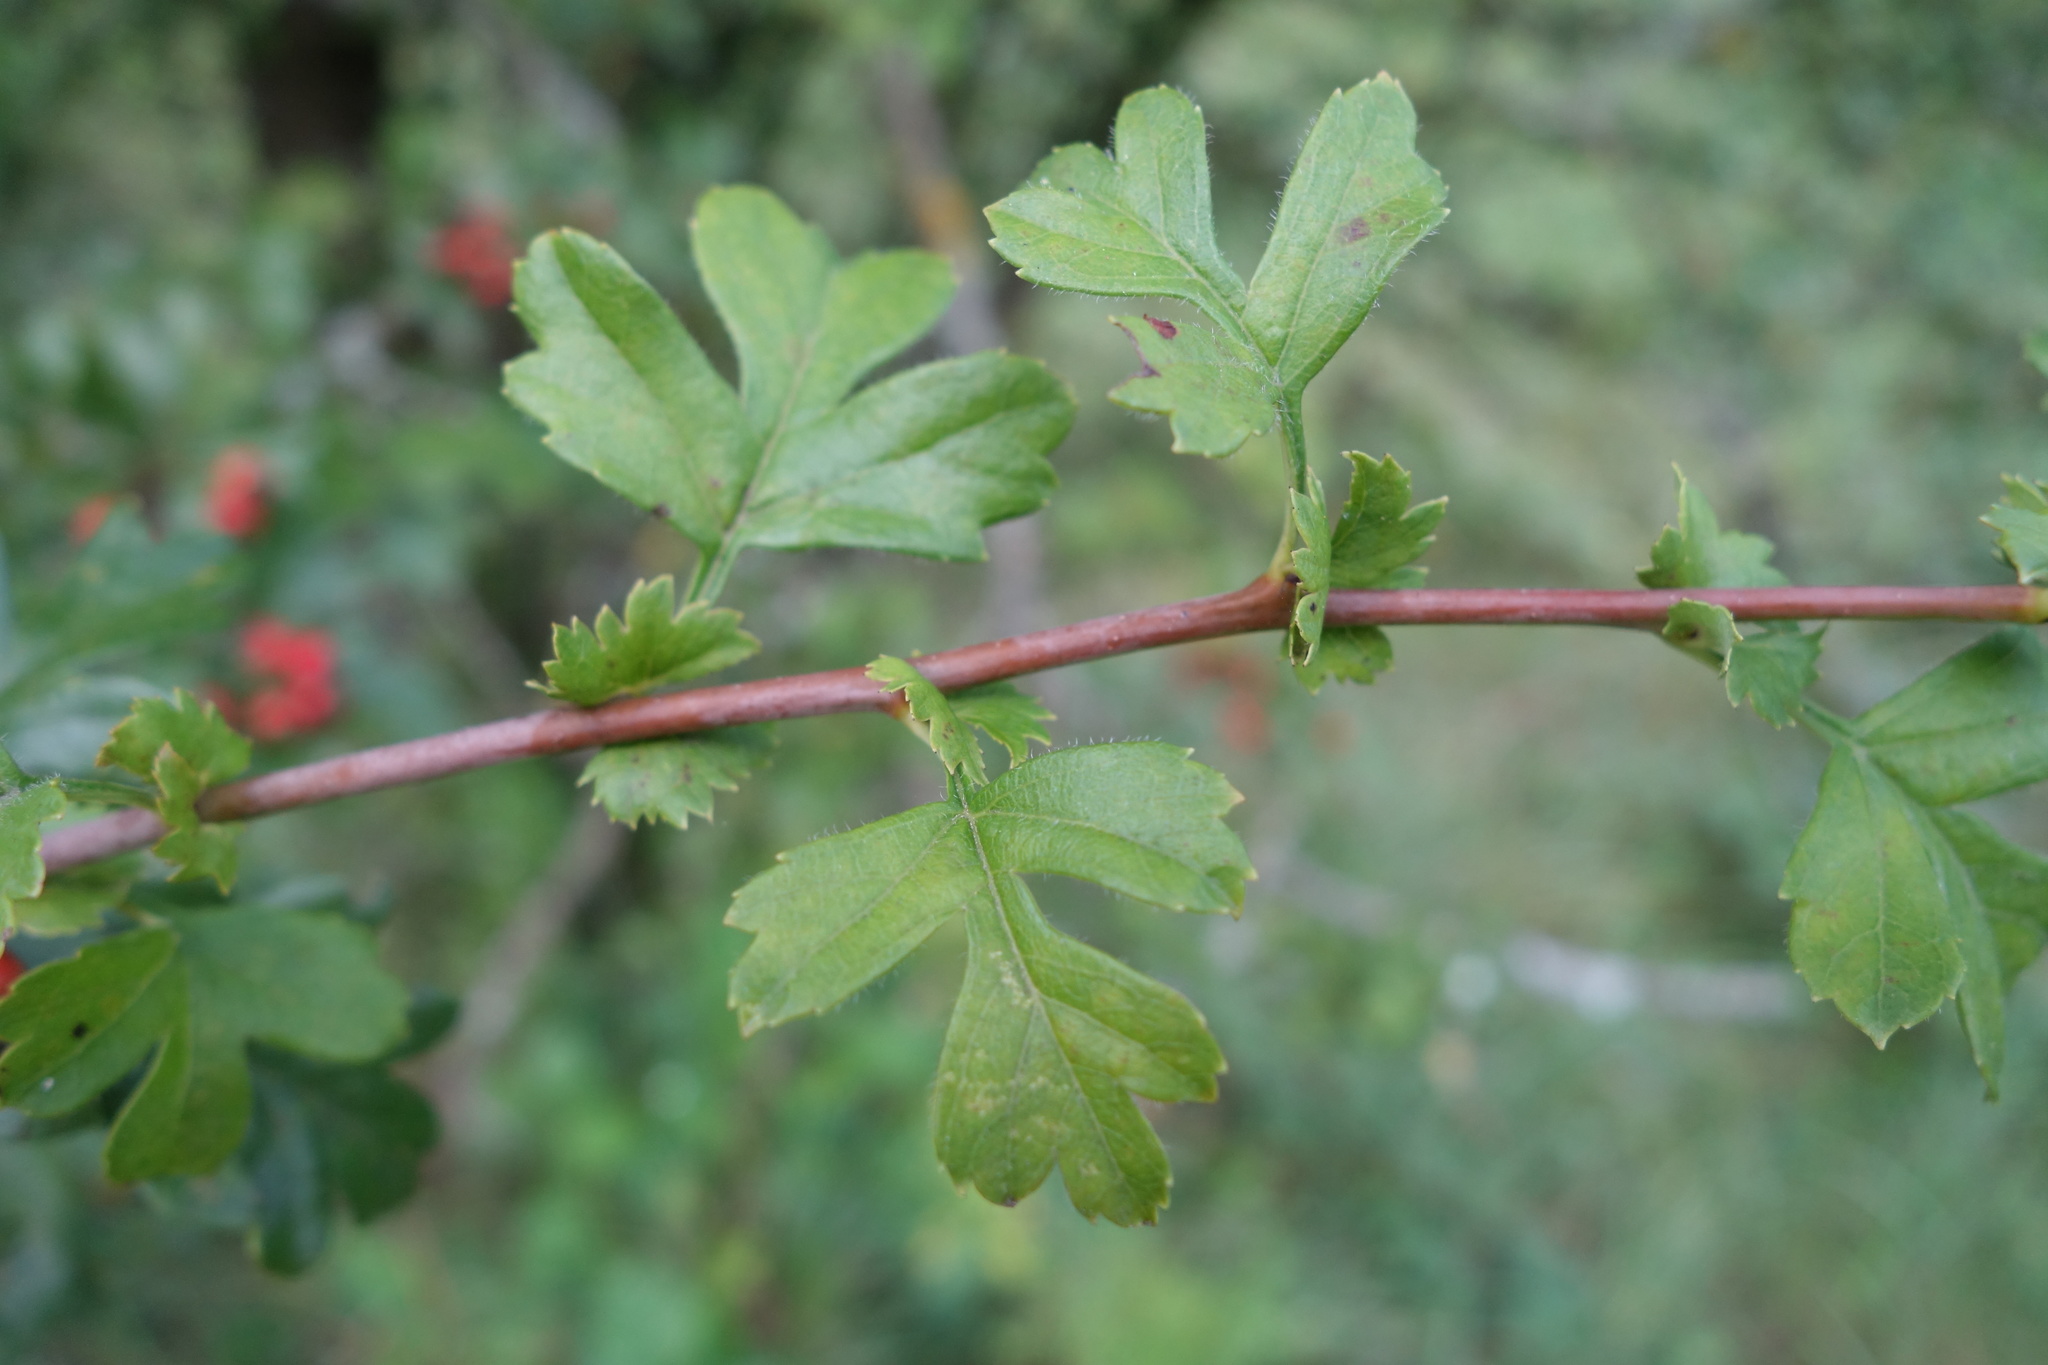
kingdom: Plantae
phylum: Tracheophyta
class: Magnoliopsida
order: Rosales
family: Rosaceae
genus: Crataegus
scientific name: Crataegus monogyna
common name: Hawthorn
